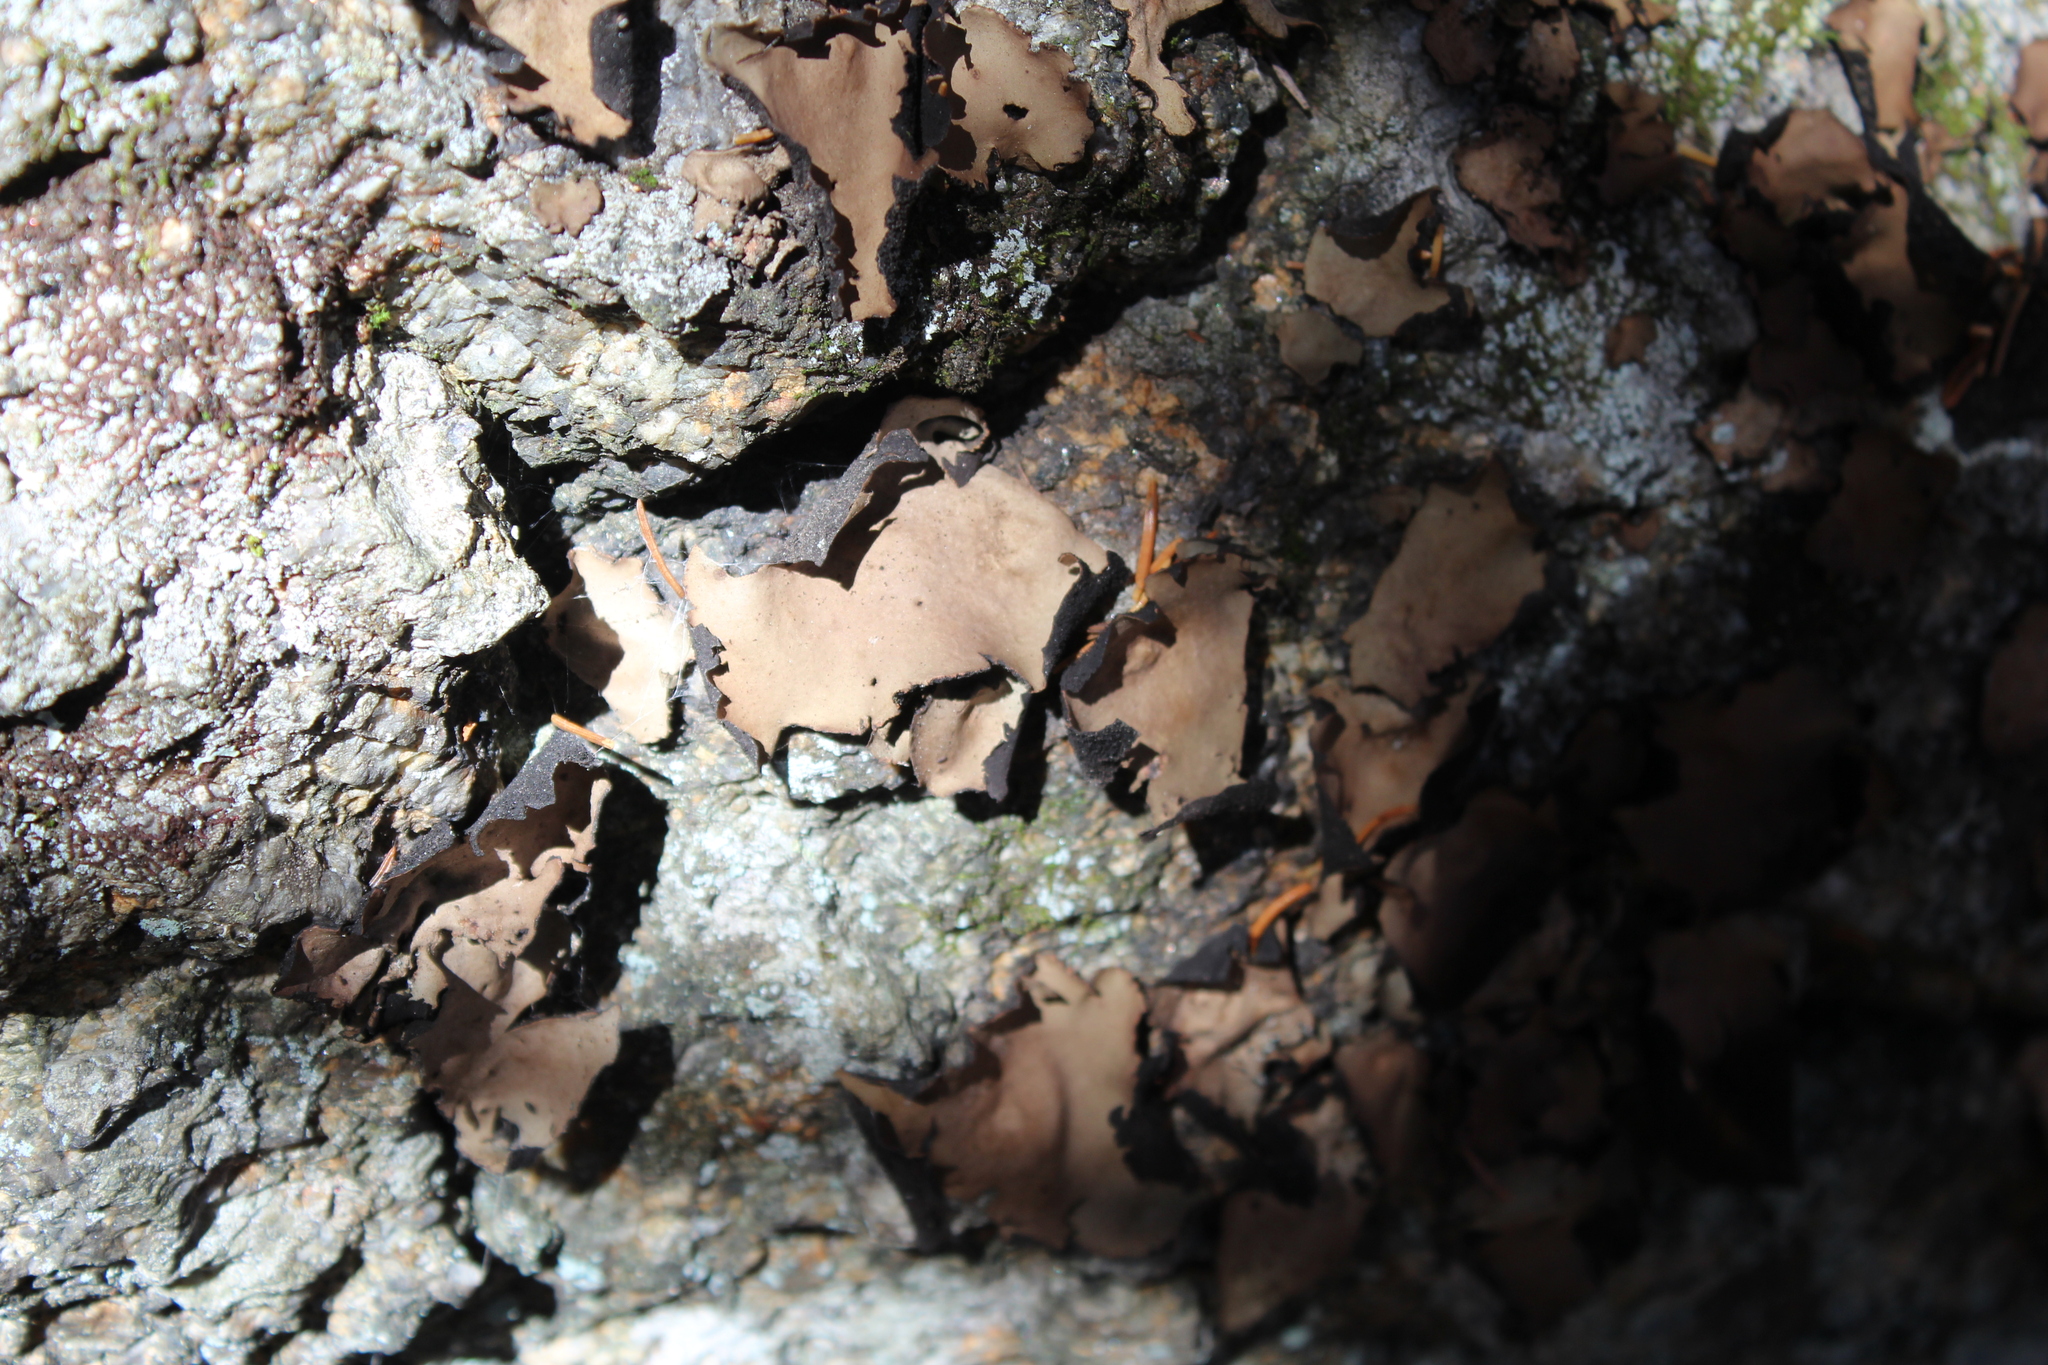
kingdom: Fungi
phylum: Ascomycota
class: Lecanoromycetes
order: Umbilicariales
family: Umbilicariaceae
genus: Umbilicaria
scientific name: Umbilicaria mammulata
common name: Smooth rock tripe
